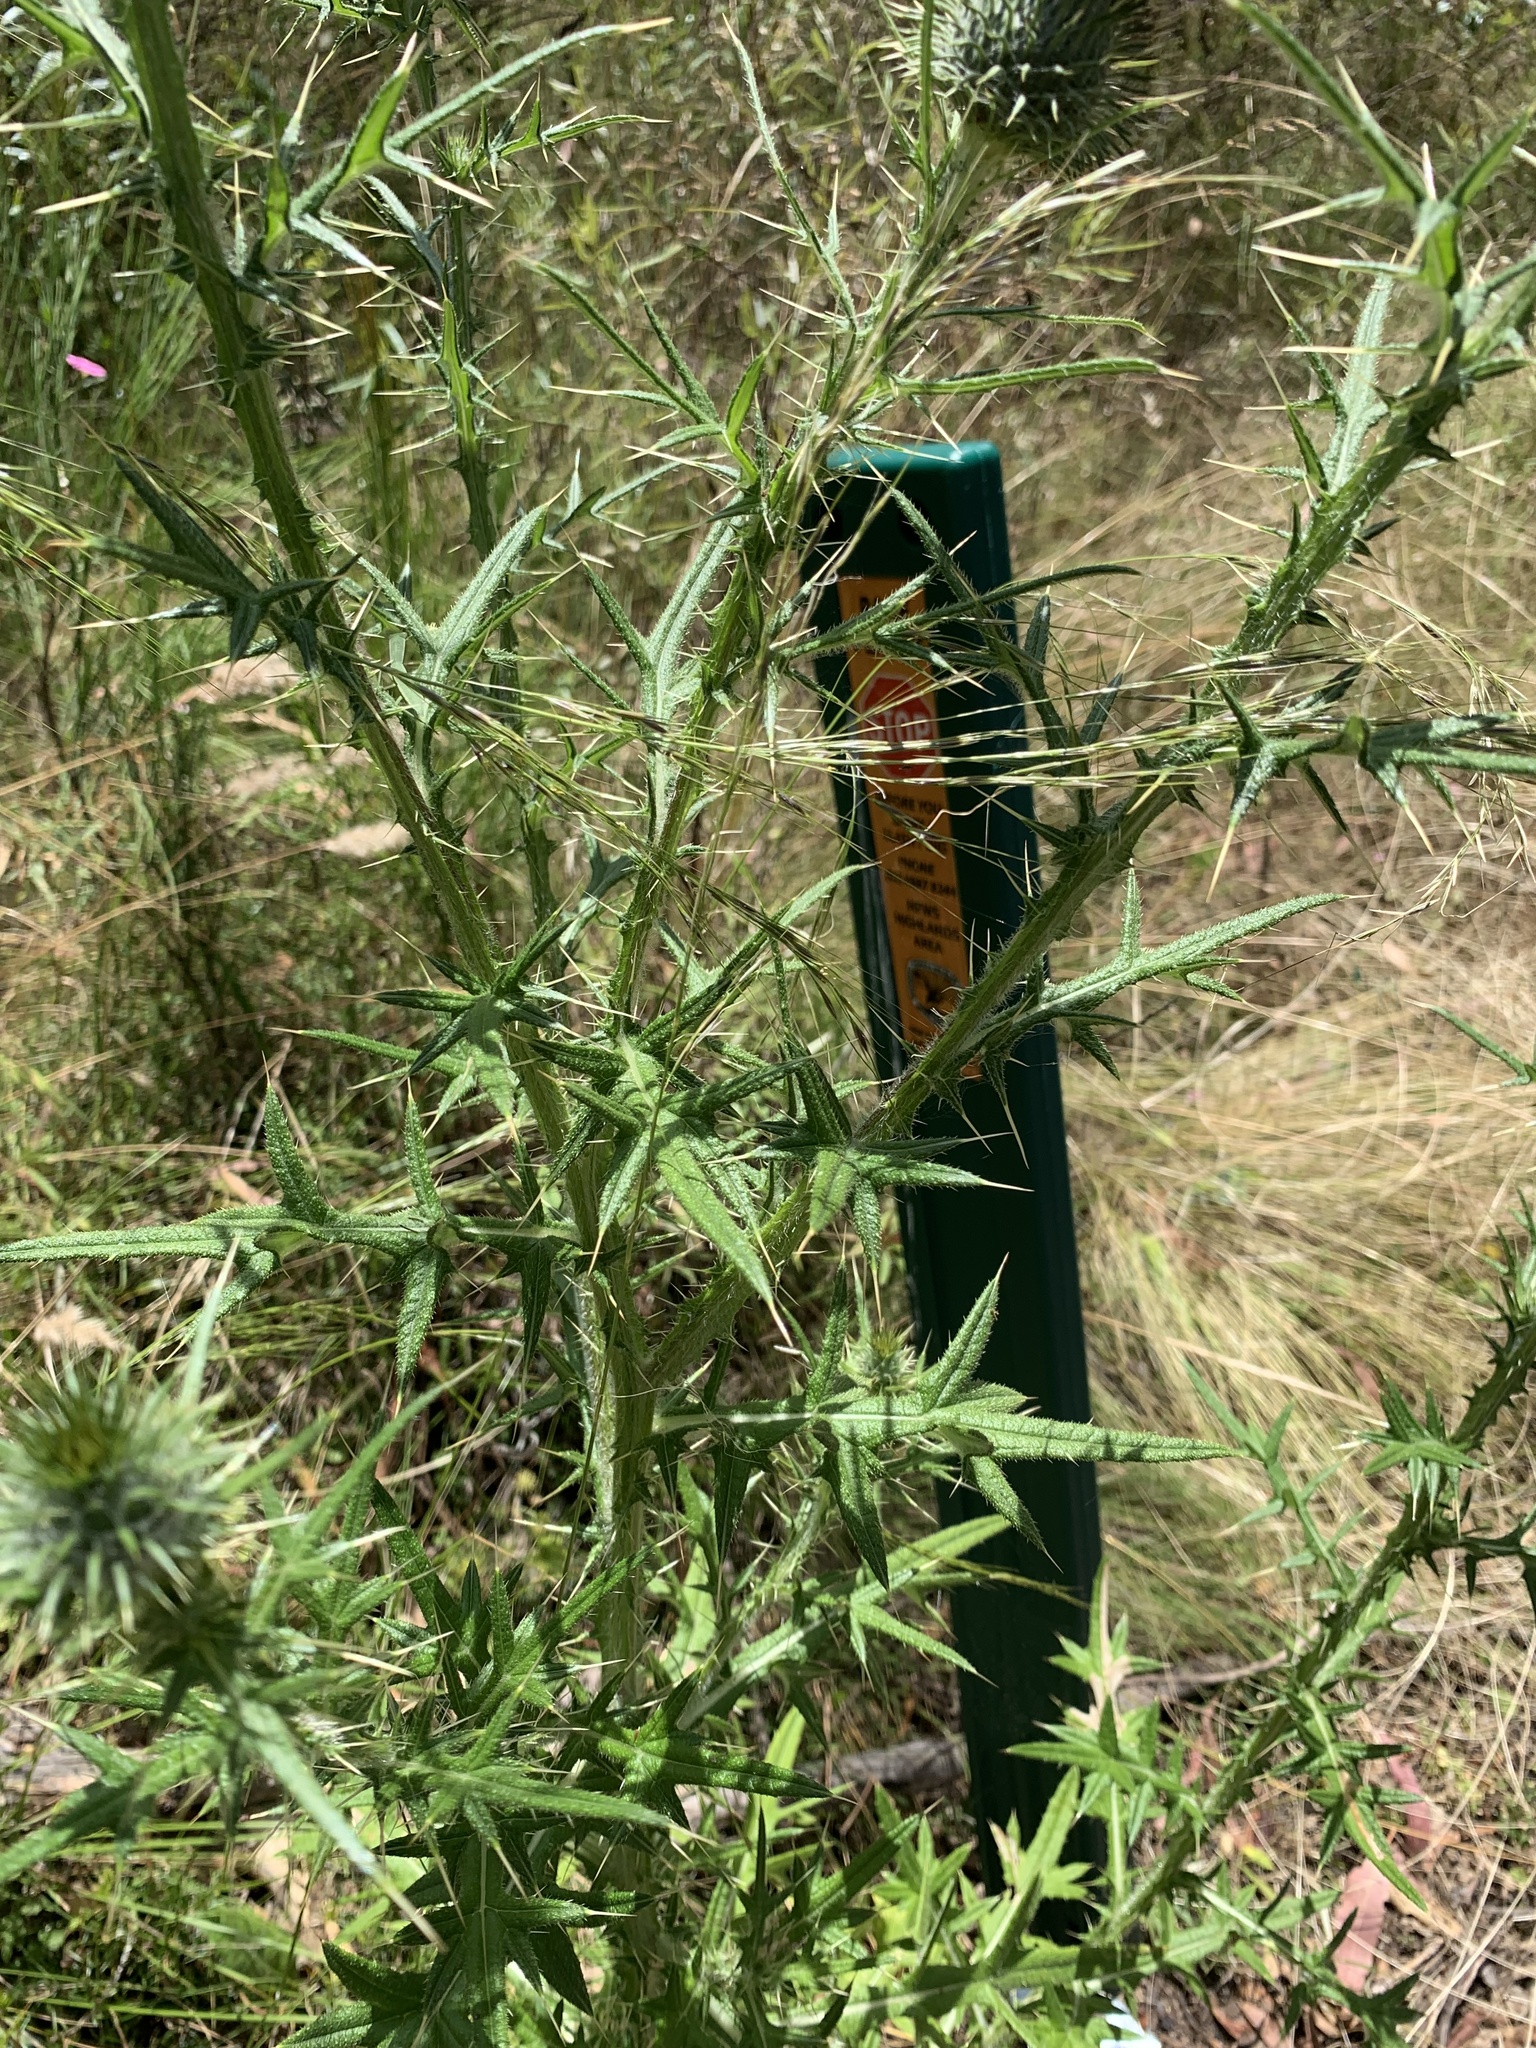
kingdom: Plantae
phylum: Tracheophyta
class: Magnoliopsida
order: Asterales
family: Asteraceae
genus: Cirsium
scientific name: Cirsium vulgare
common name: Bull thistle
